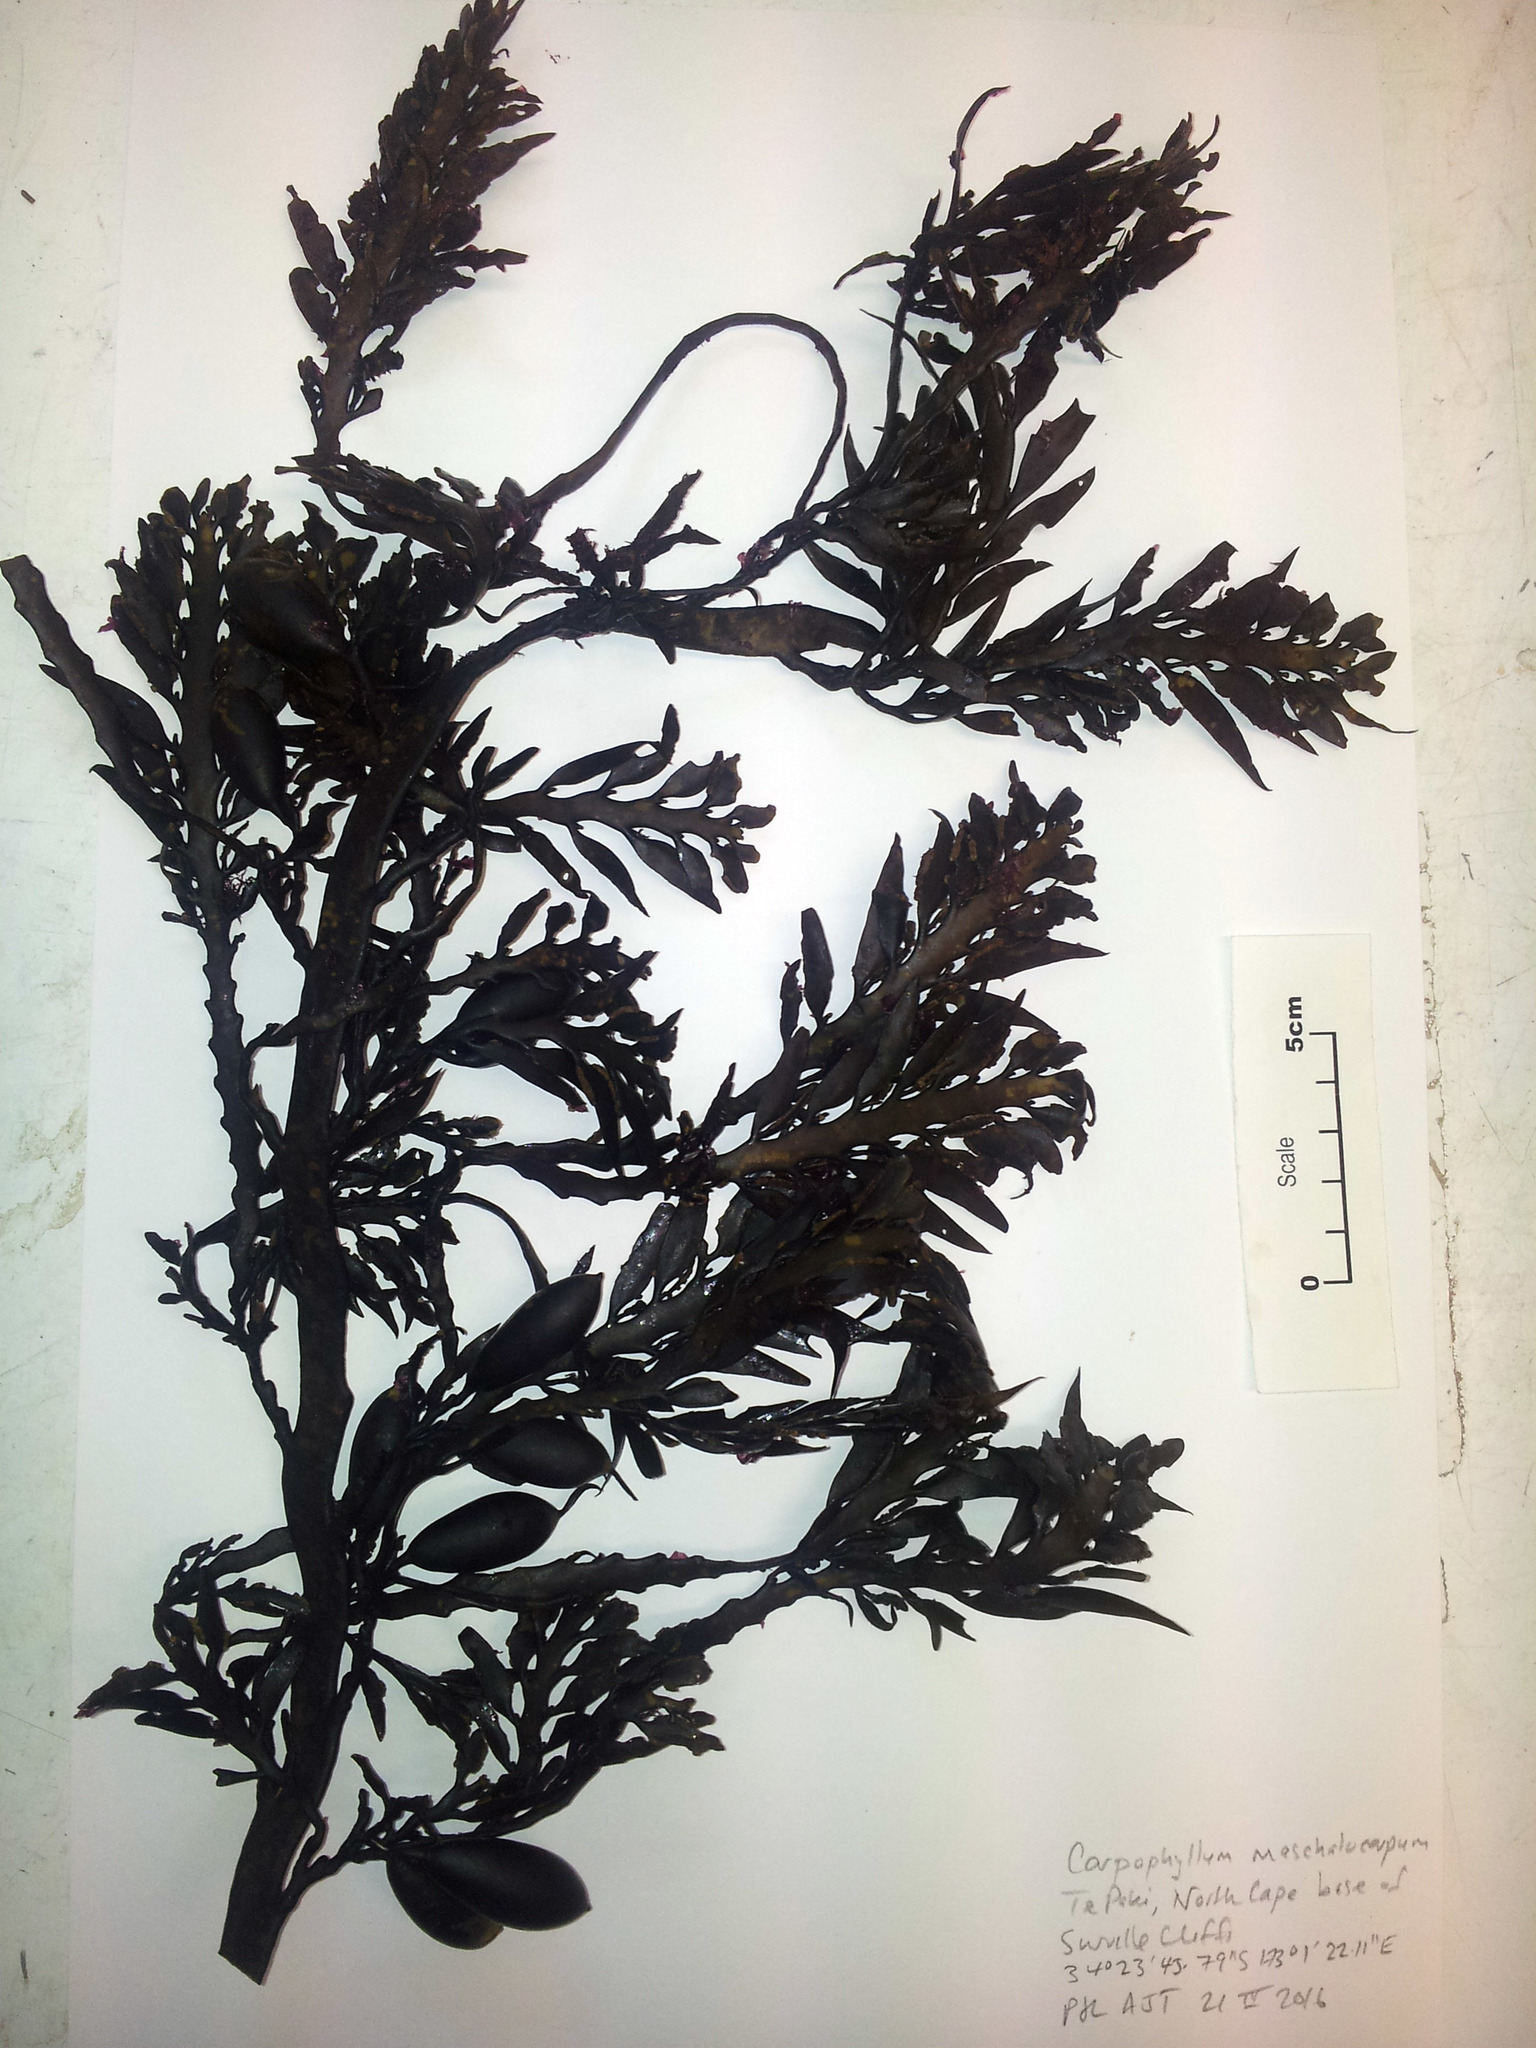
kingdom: Chromista
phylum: Ochrophyta
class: Phaeophyceae
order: Fucales
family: Sargassaceae
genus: Carpophyllum
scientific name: Carpophyllum maschalocarpum
